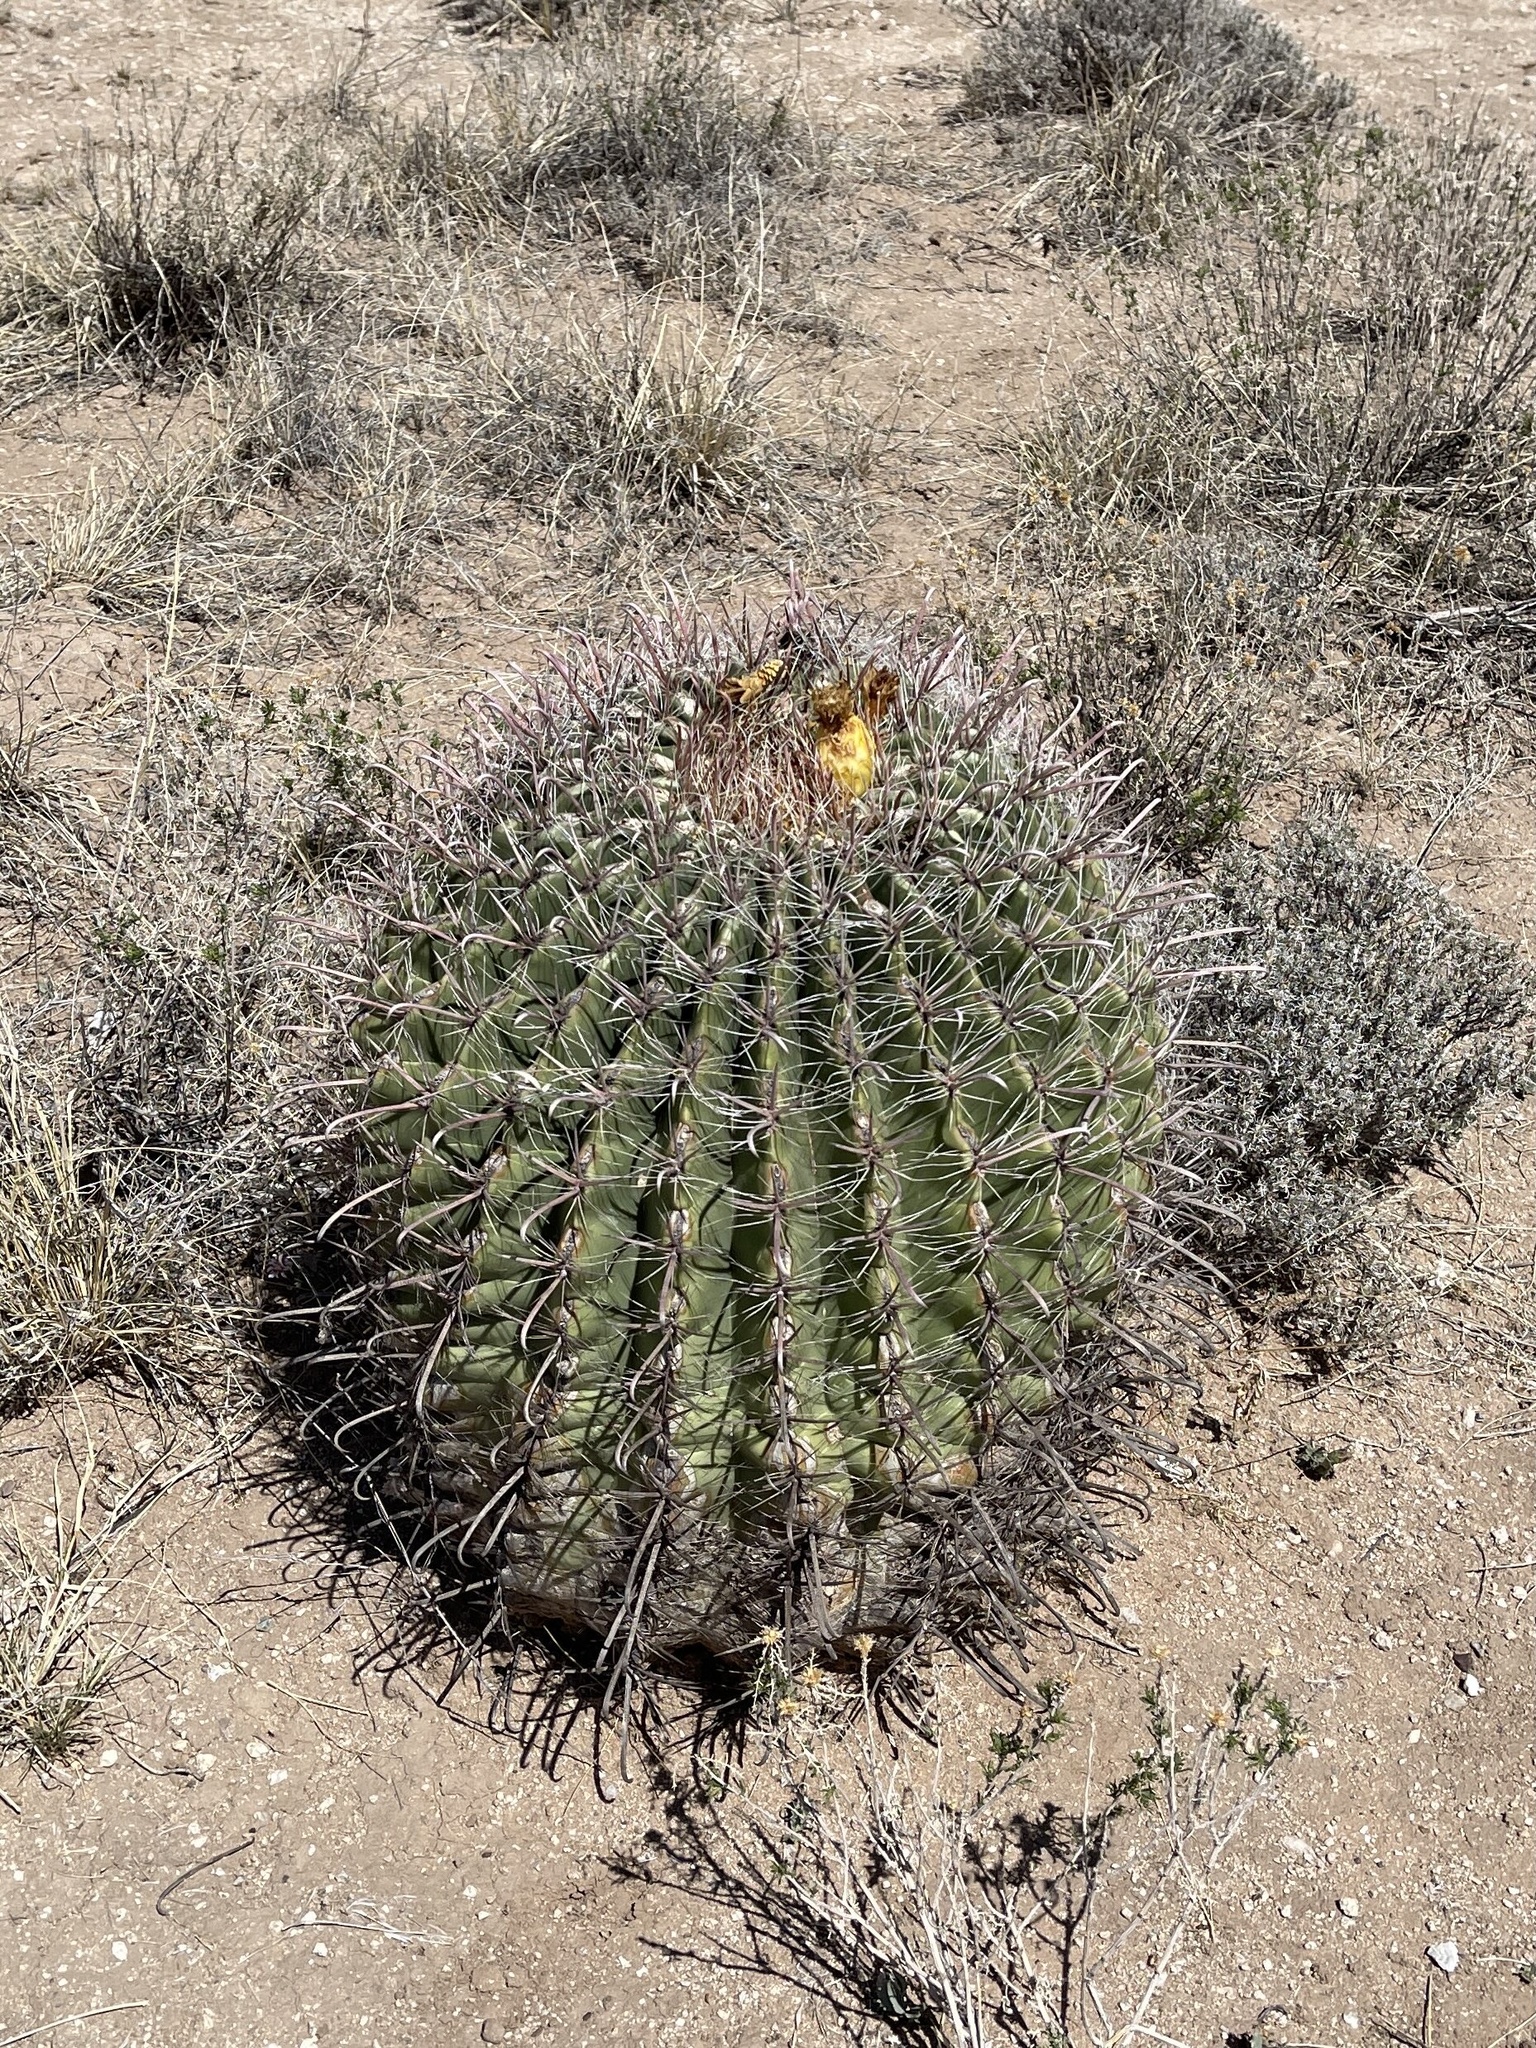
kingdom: Plantae
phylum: Tracheophyta
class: Magnoliopsida
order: Caryophyllales
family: Cactaceae
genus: Ferocactus
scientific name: Ferocactus wislizeni
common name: Candy barrel cactus
